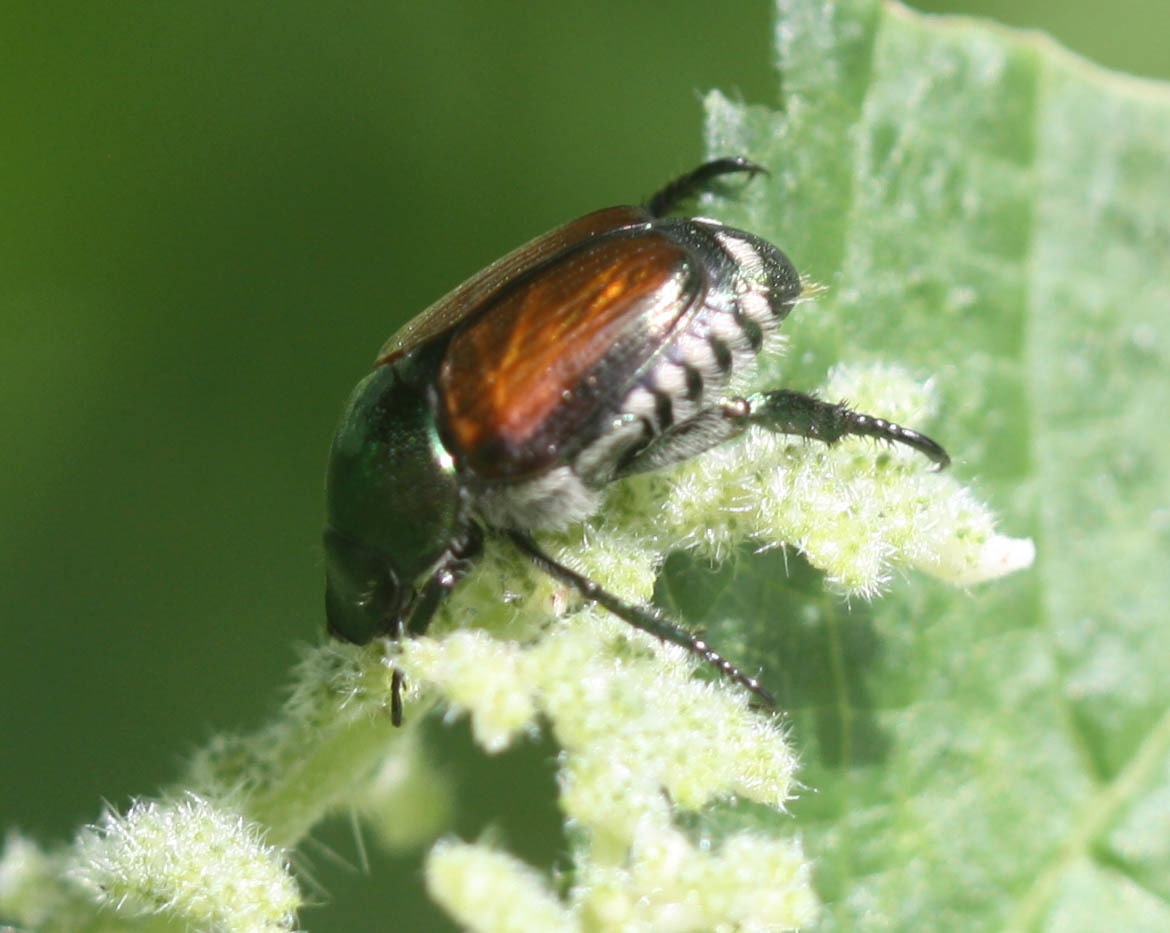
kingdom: Animalia
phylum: Arthropoda
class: Insecta
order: Coleoptera
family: Scarabaeidae
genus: Popillia
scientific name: Popillia japonica
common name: Japanese beetle
